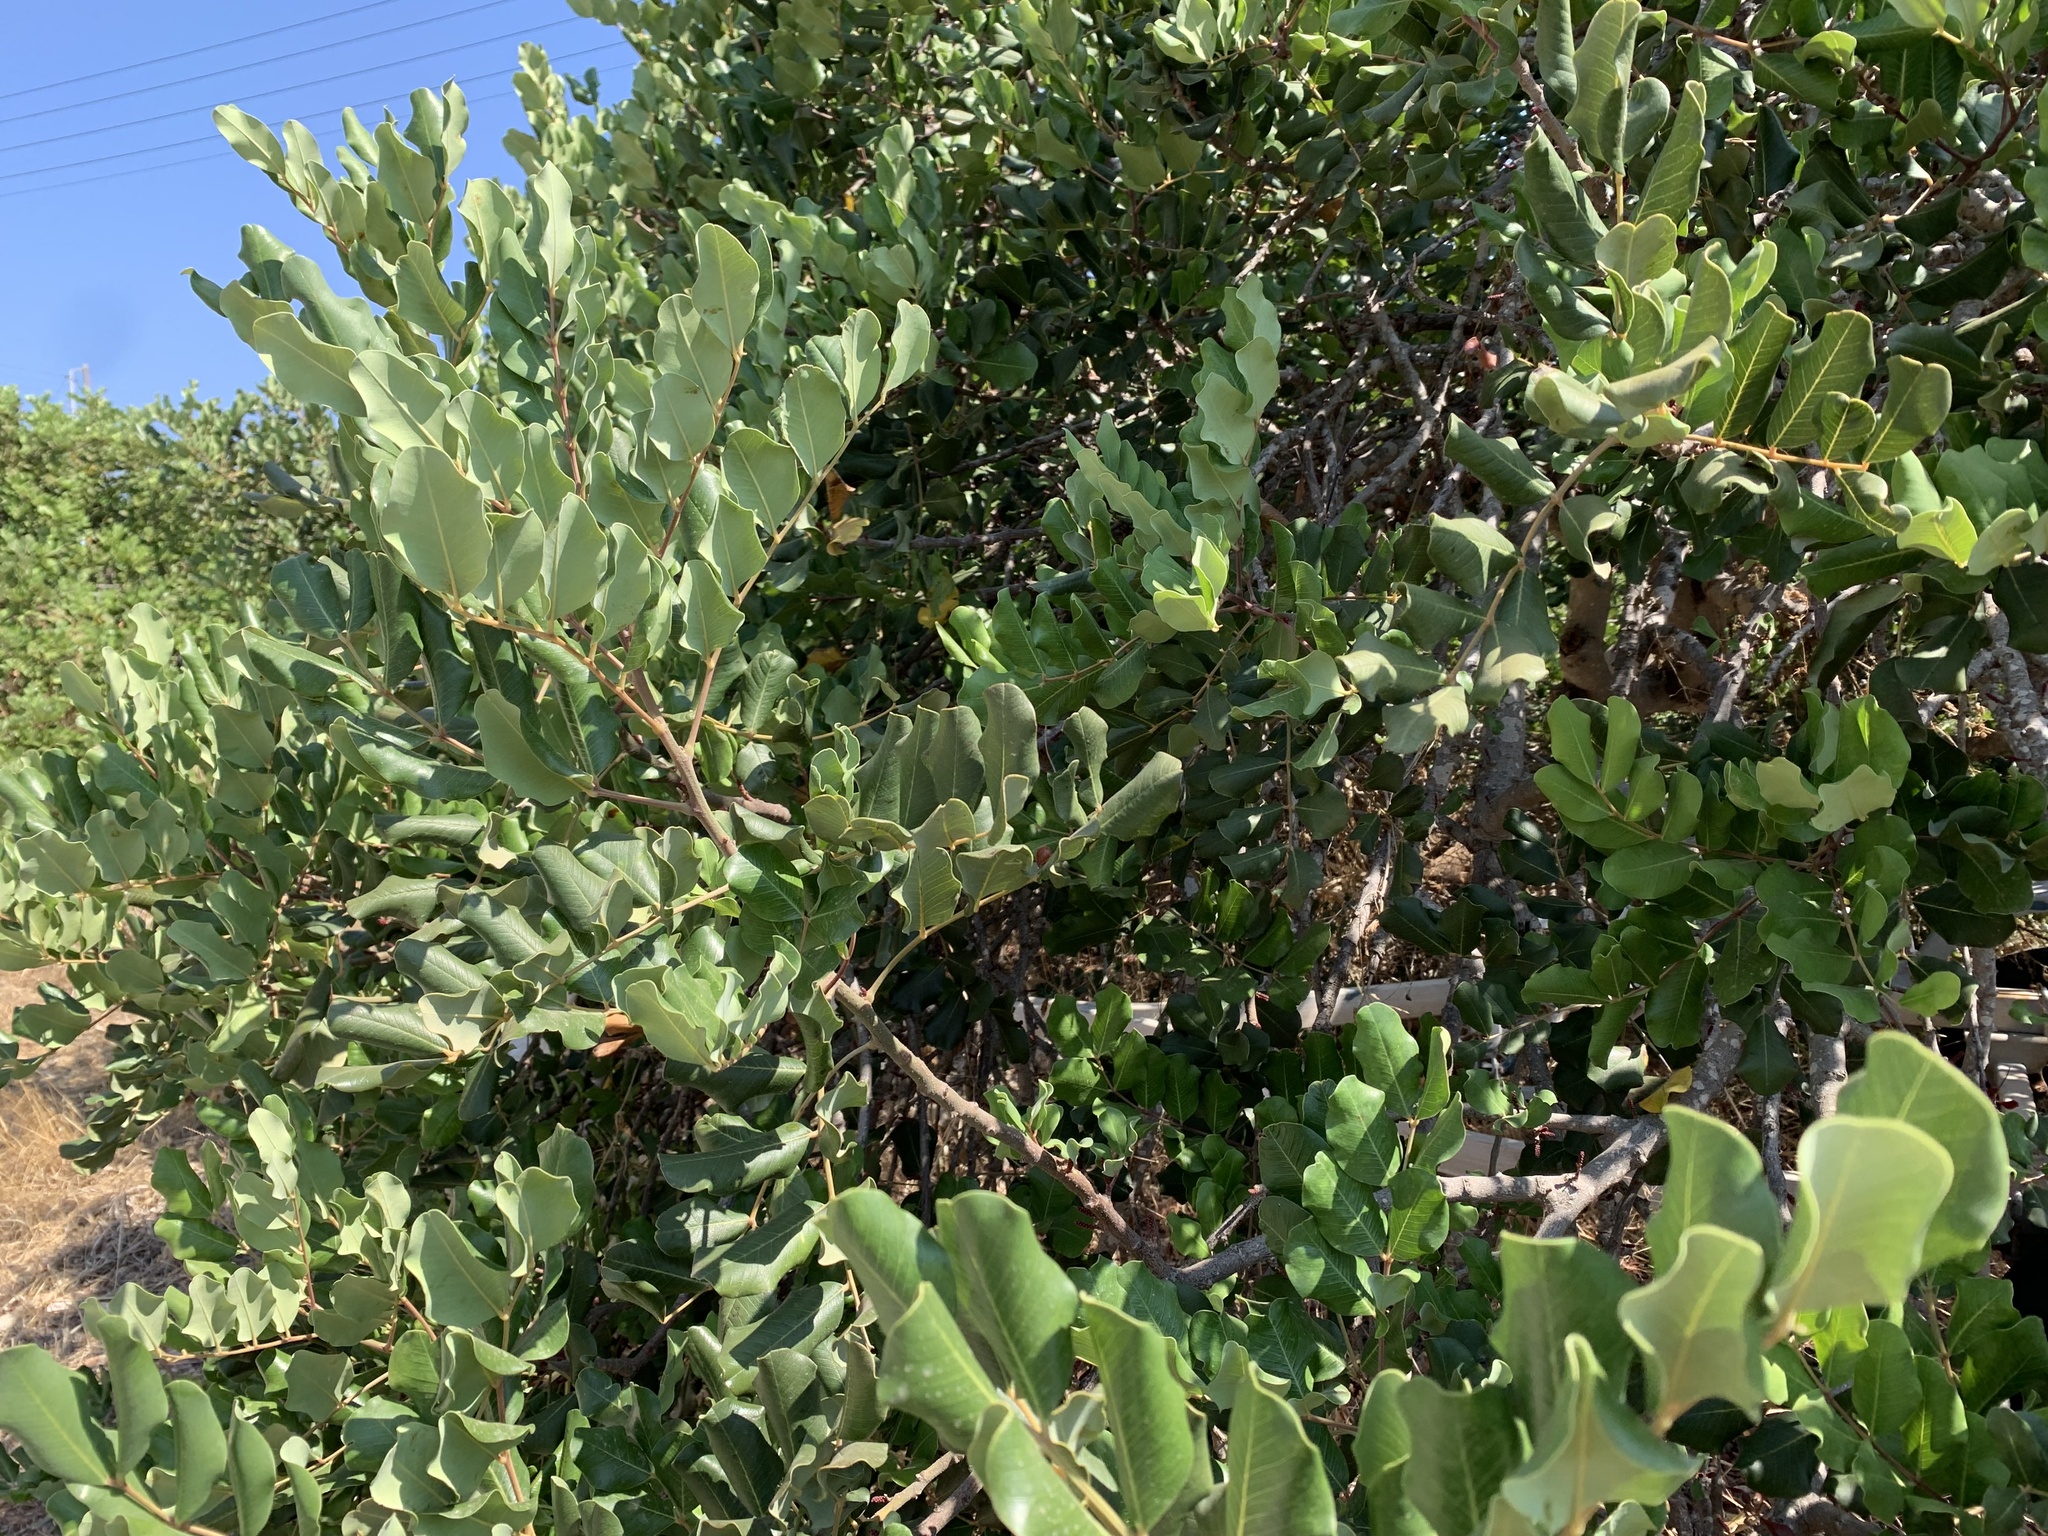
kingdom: Plantae
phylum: Tracheophyta
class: Magnoliopsida
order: Fabales
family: Fabaceae
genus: Ceratonia
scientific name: Ceratonia siliqua
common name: Carob
